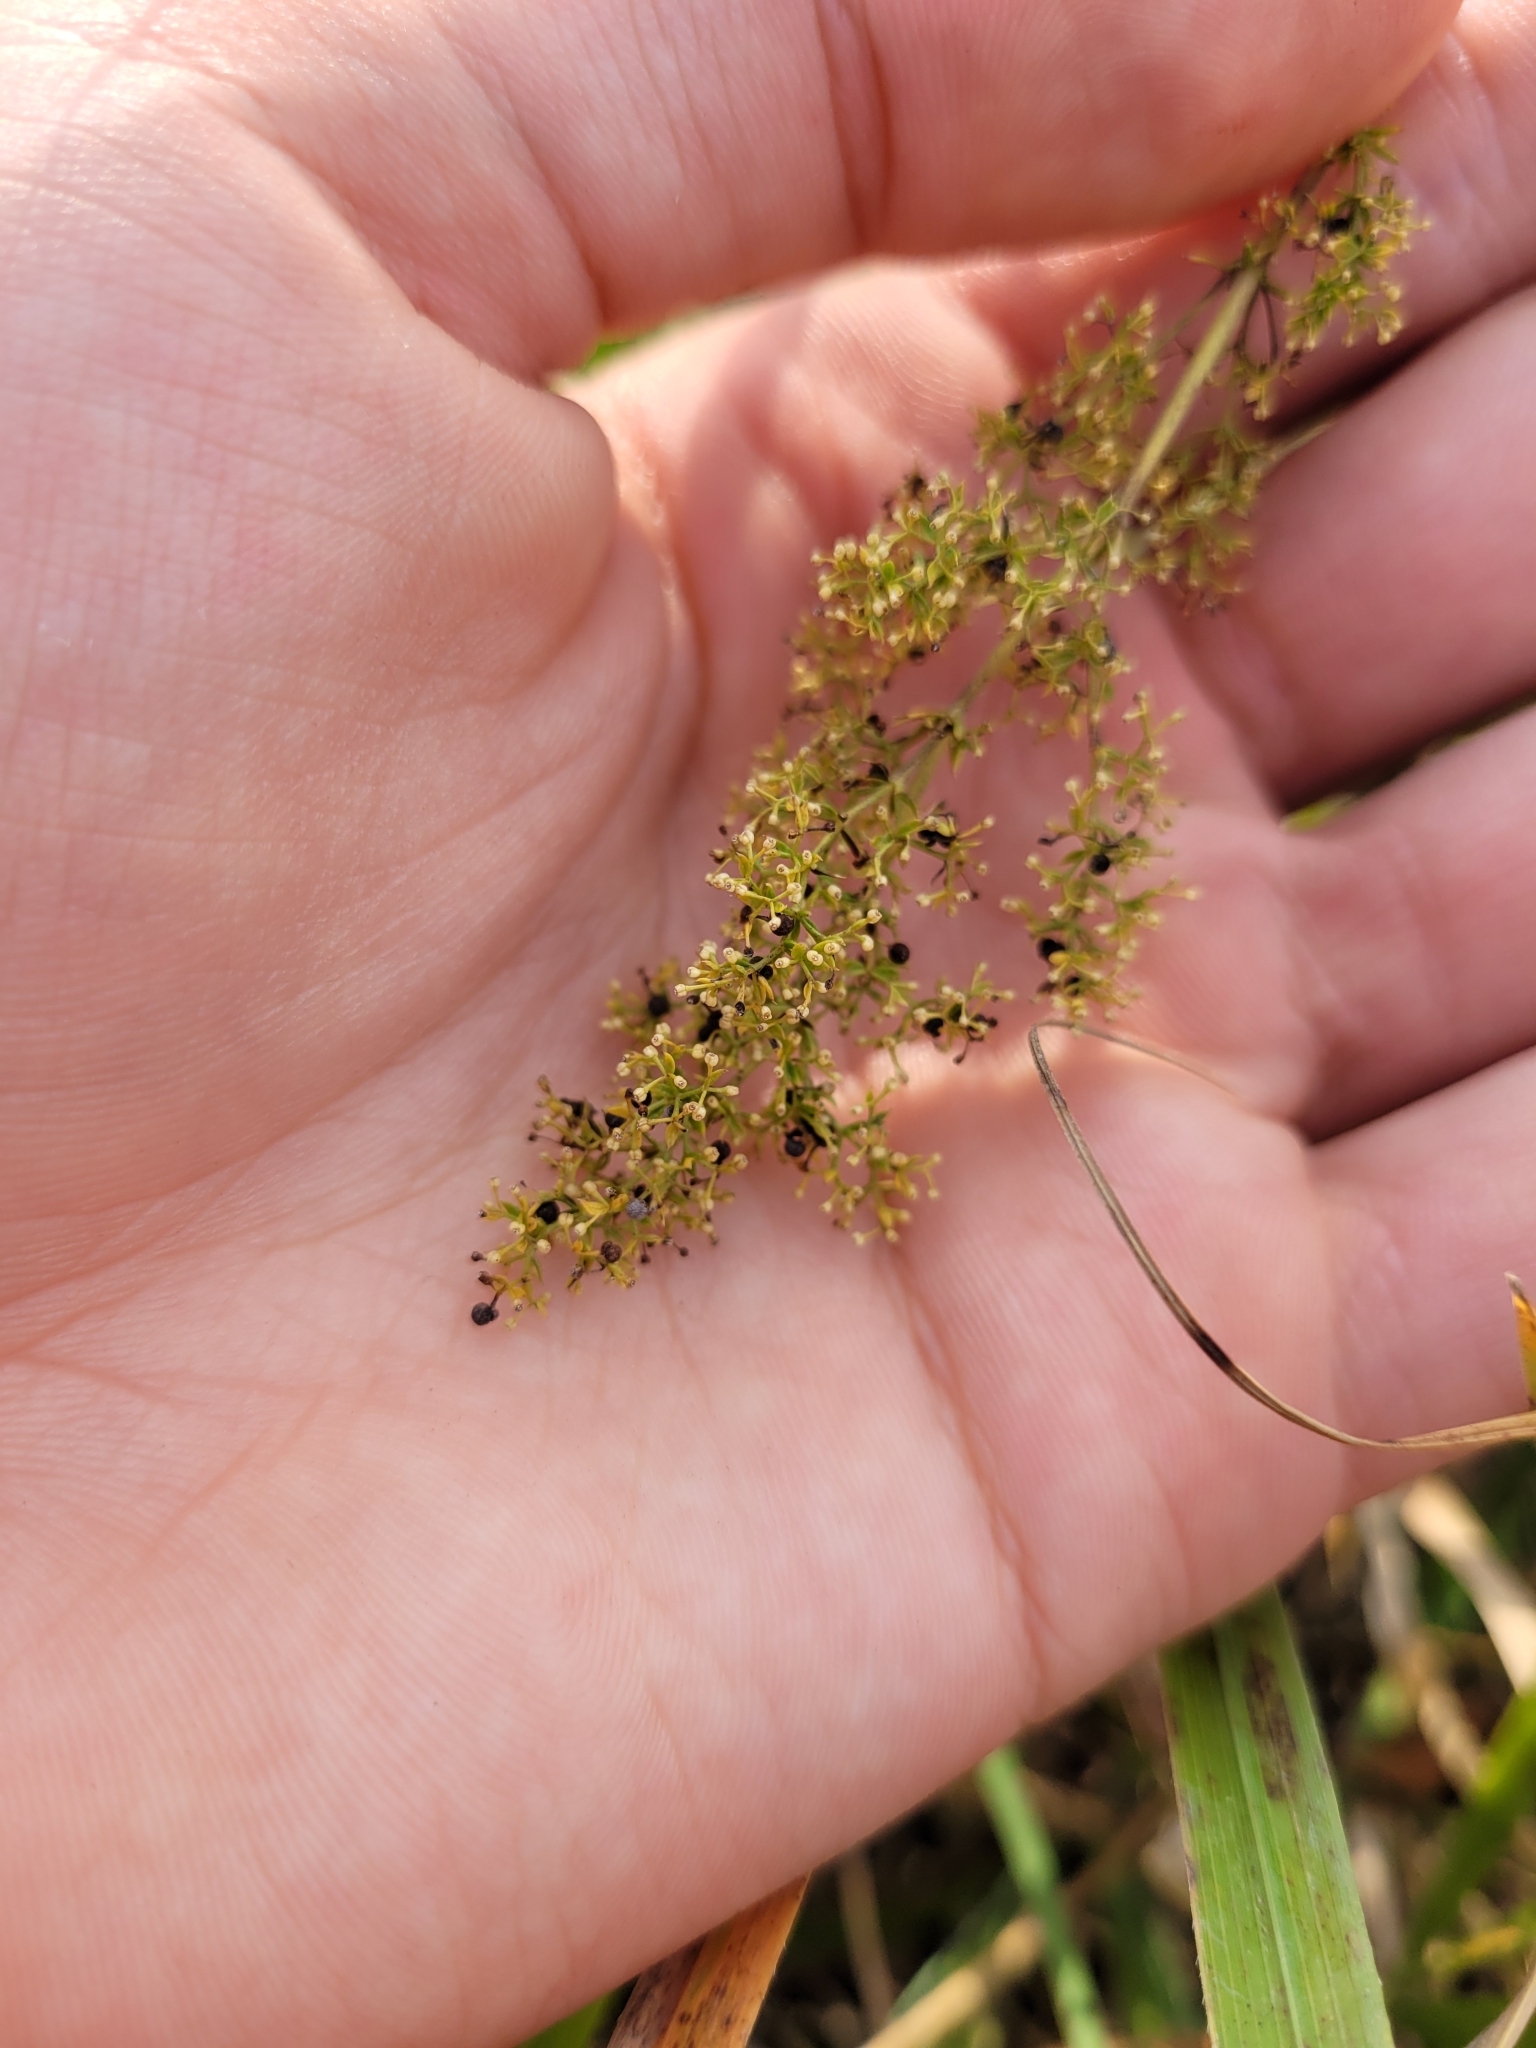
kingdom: Plantae
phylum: Tracheophyta
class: Magnoliopsida
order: Gentianales
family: Rubiaceae
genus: Galium
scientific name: Galium verum
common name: Lady's bedstraw
